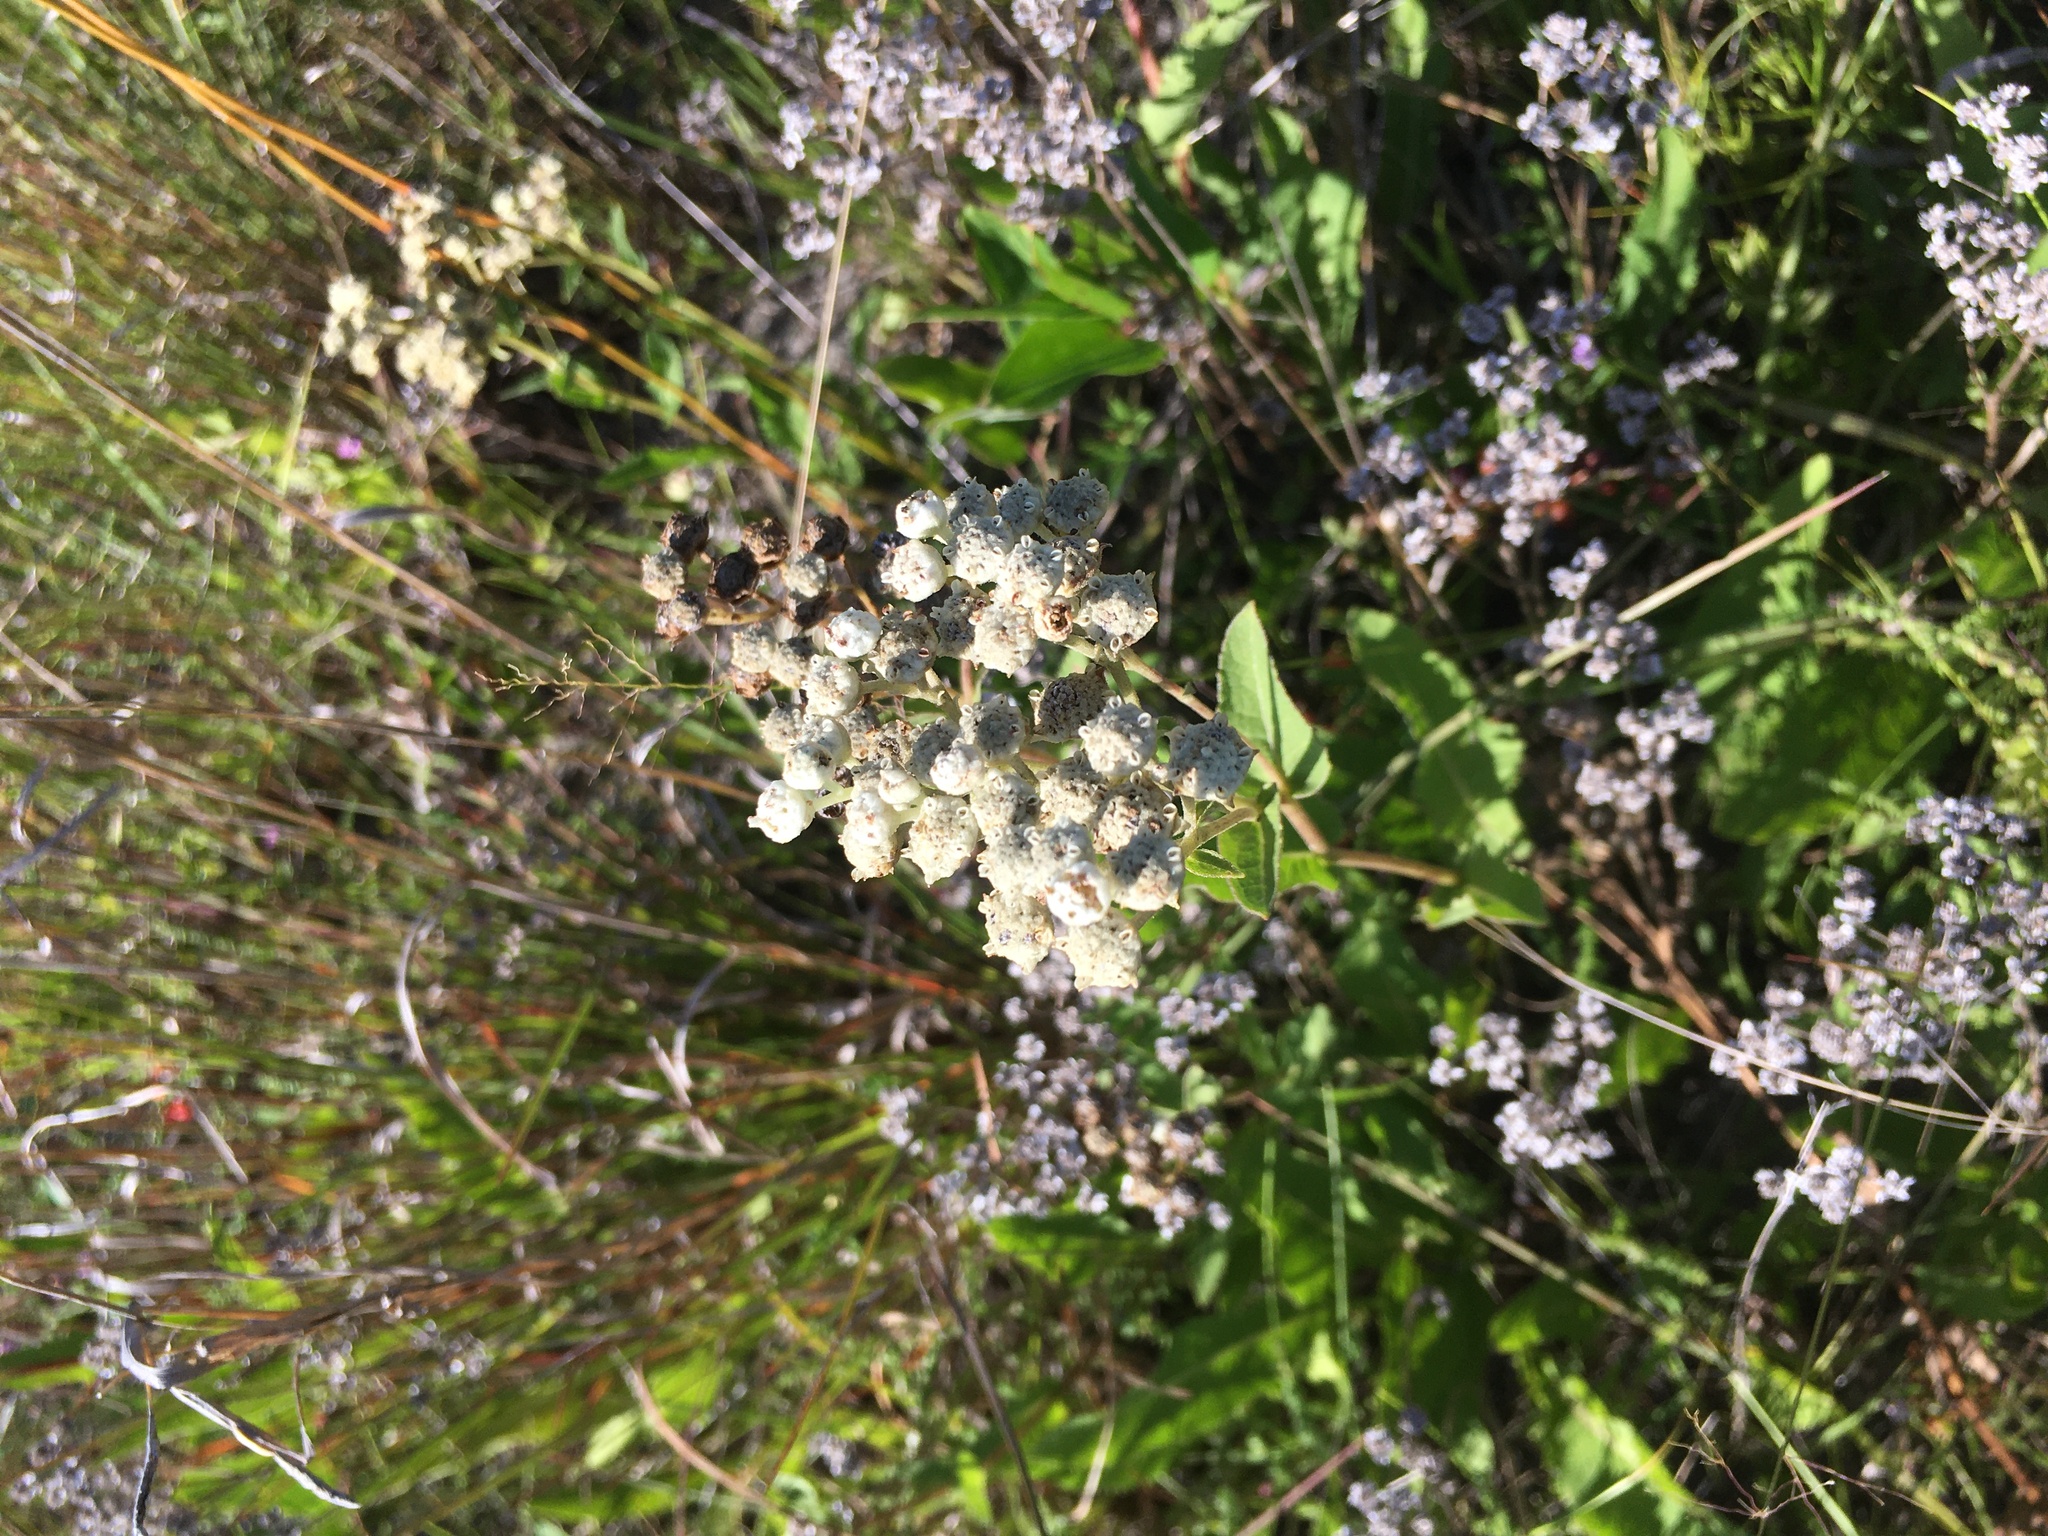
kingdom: Plantae
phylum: Tracheophyta
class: Magnoliopsida
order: Asterales
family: Asteraceae
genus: Parthenium
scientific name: Parthenium integrifolium
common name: American feverfew
